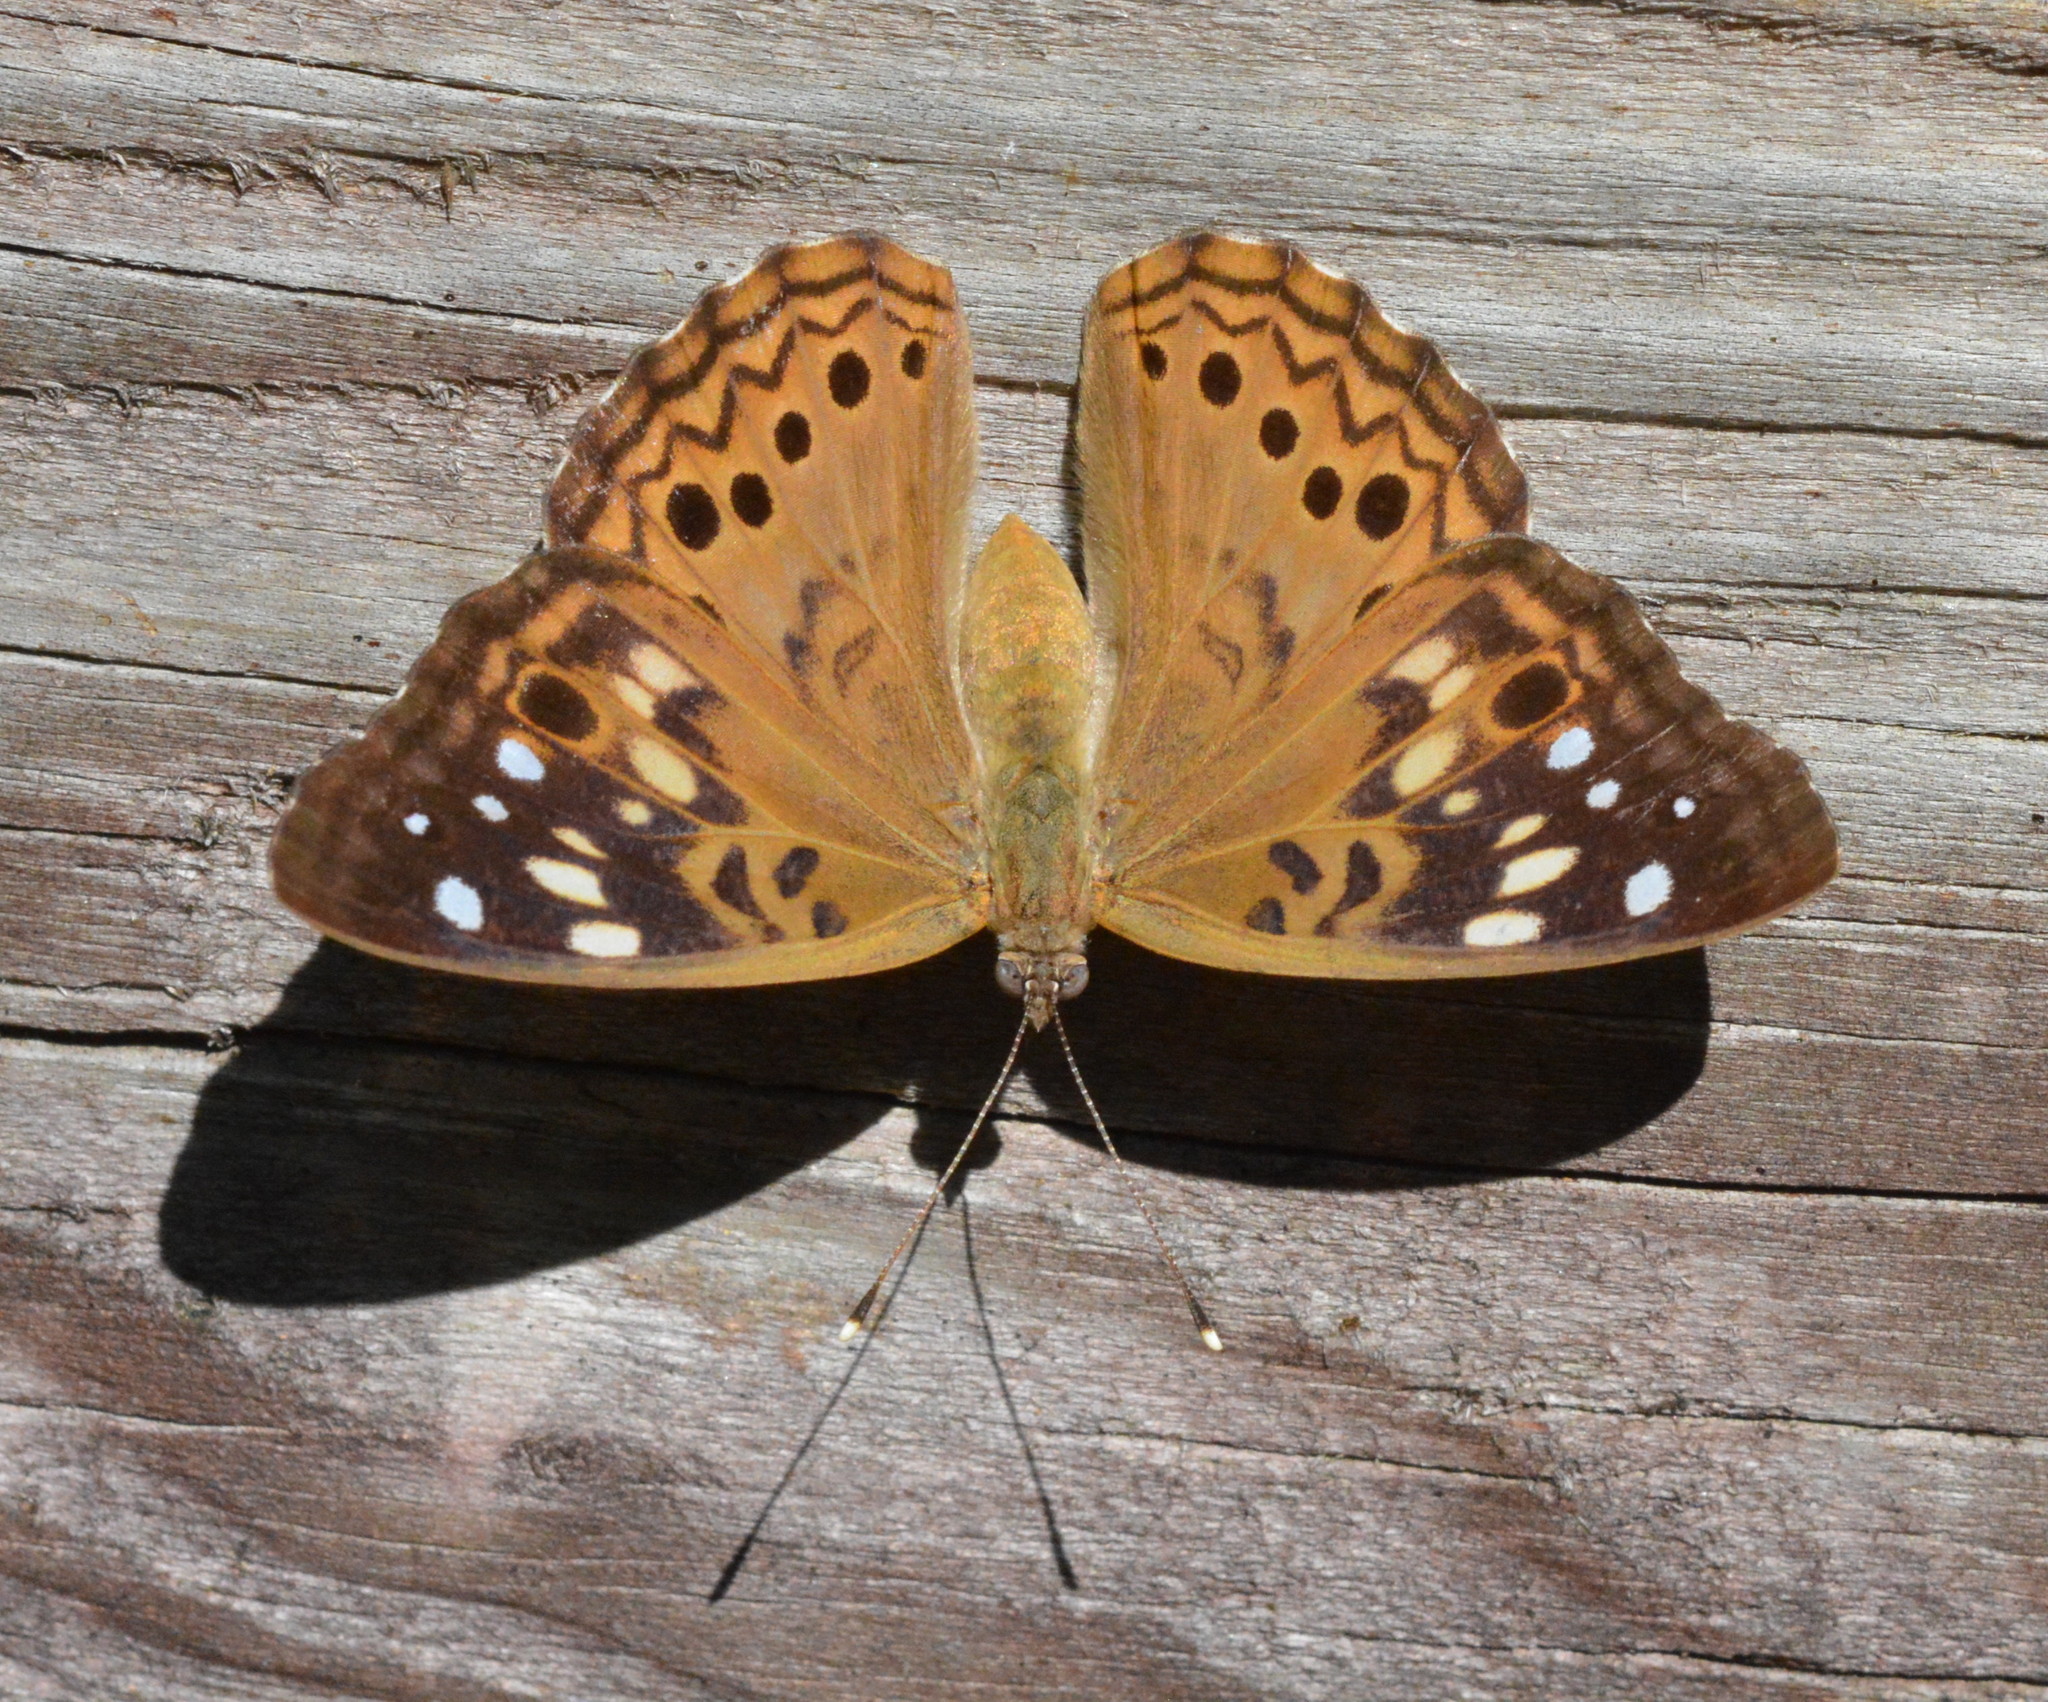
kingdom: Animalia
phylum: Arthropoda
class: Insecta
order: Lepidoptera
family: Nymphalidae
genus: Asterocampa
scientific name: Asterocampa celtis
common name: Hackberry emperor
